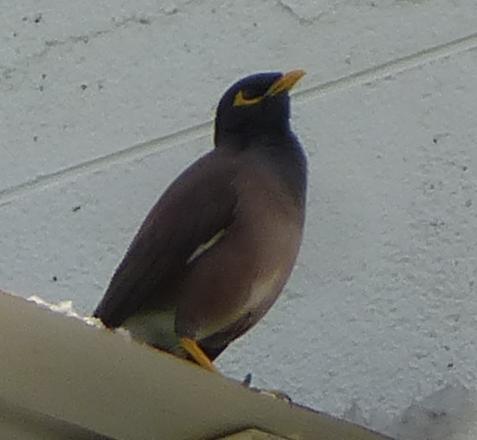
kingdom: Animalia
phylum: Chordata
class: Aves
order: Passeriformes
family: Sturnidae
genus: Acridotheres
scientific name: Acridotheres tristis
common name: Common myna
